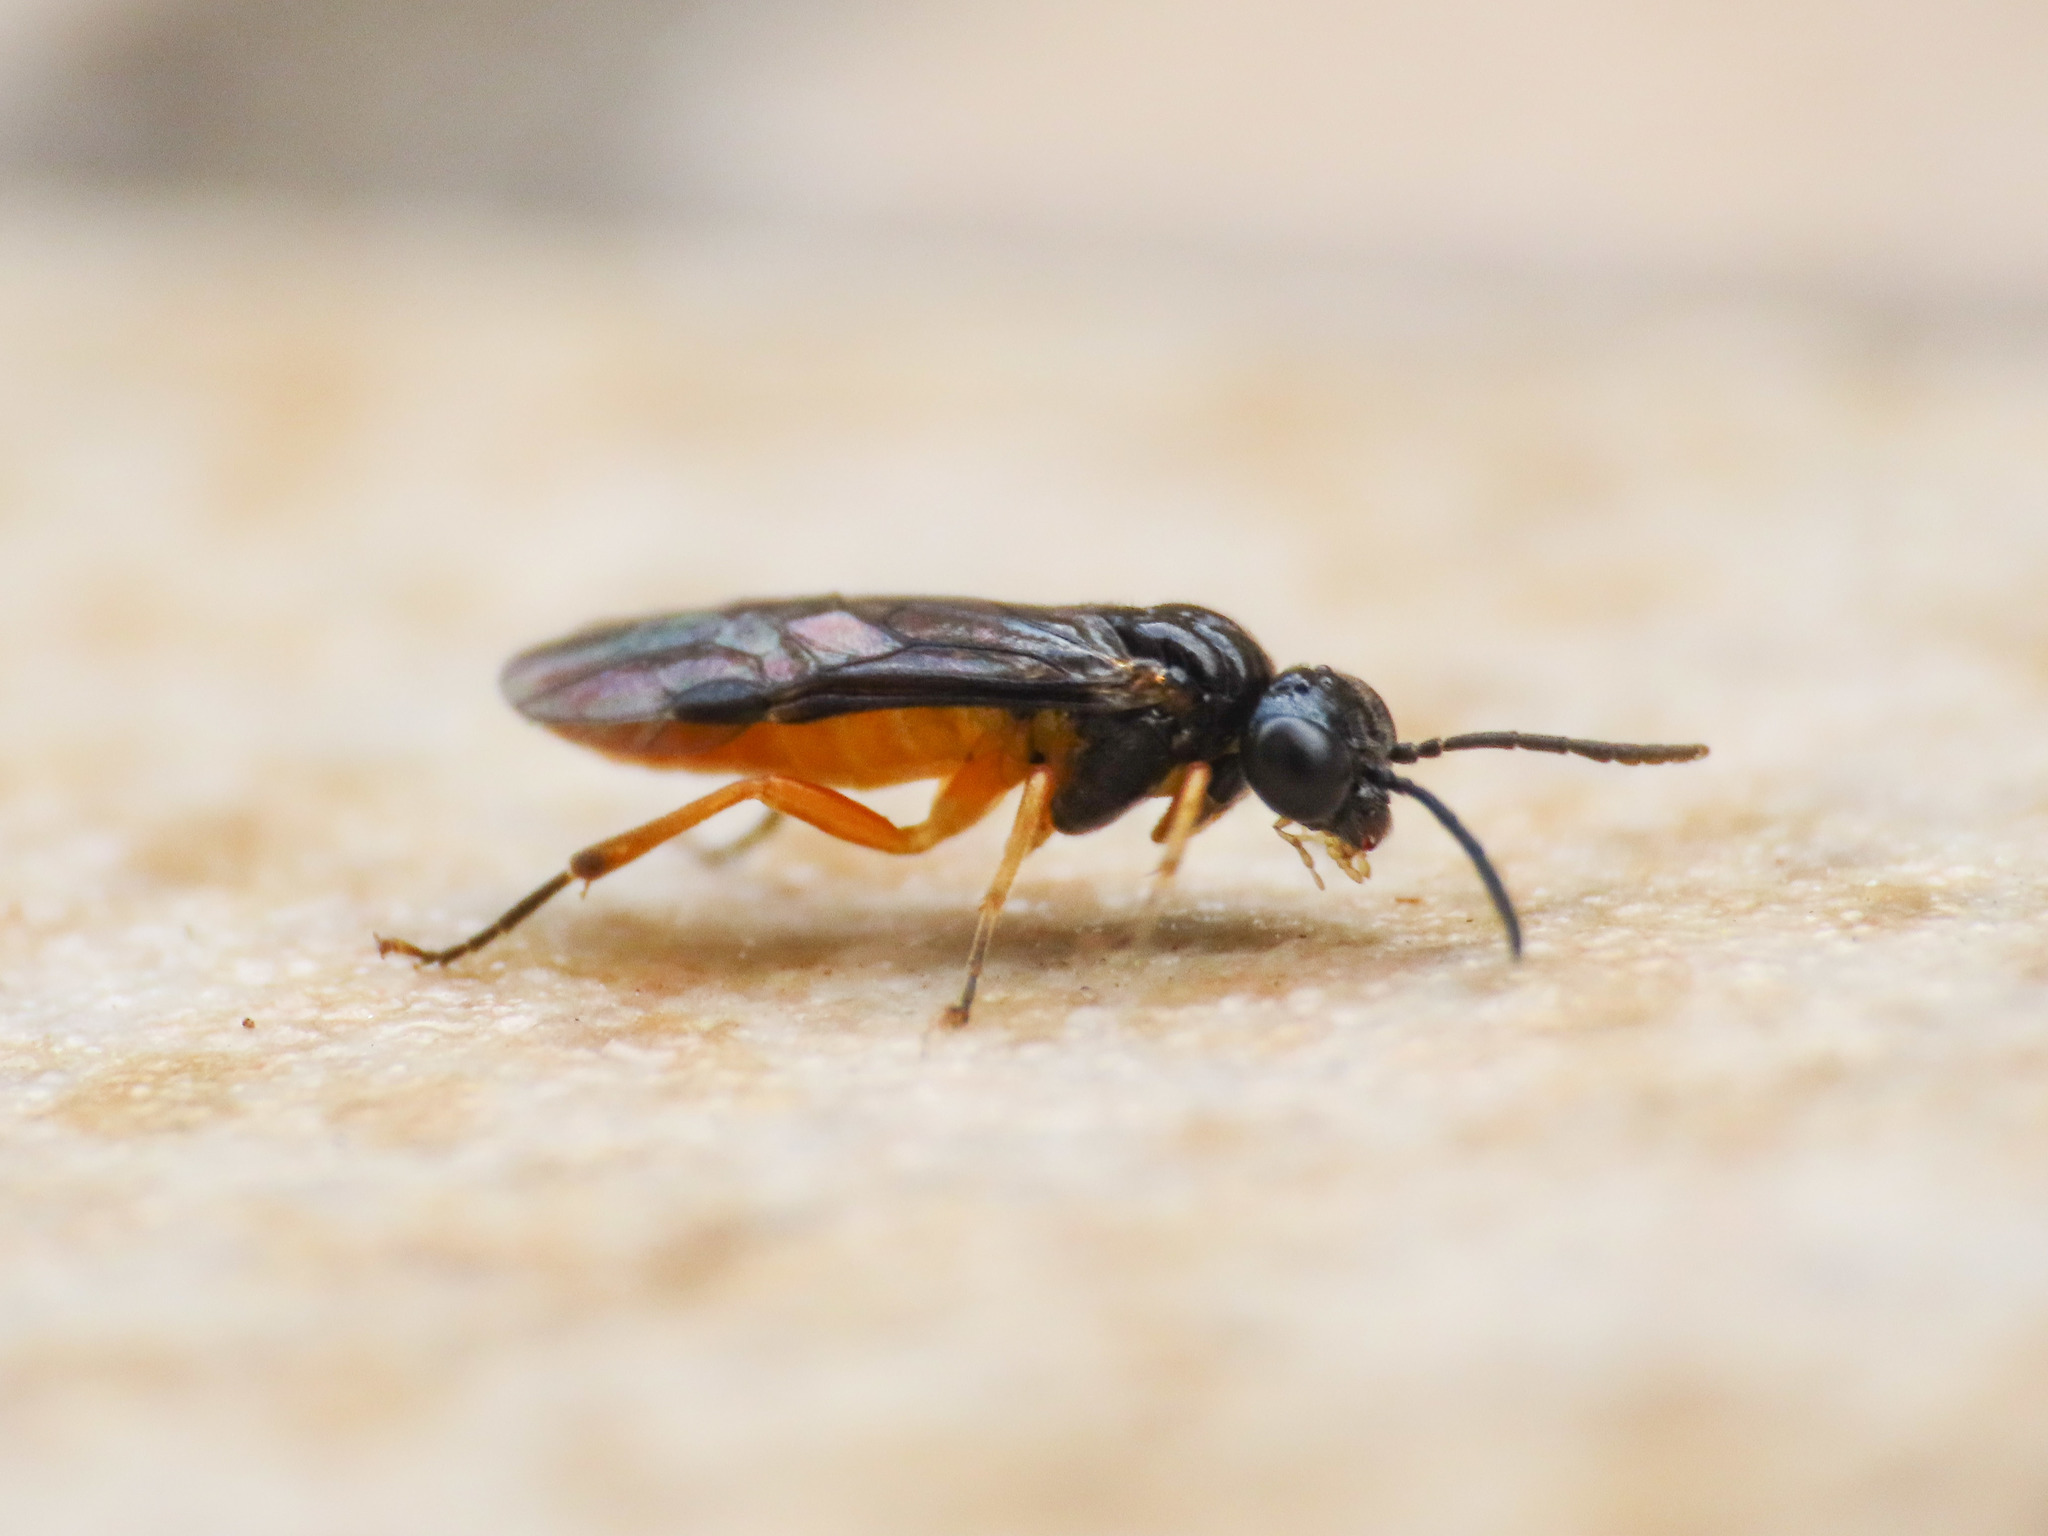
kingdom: Animalia
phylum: Arthropoda
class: Insecta
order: Hymenoptera
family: Tenthredinidae
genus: Monophadnus
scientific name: Monophadnus spinolae
